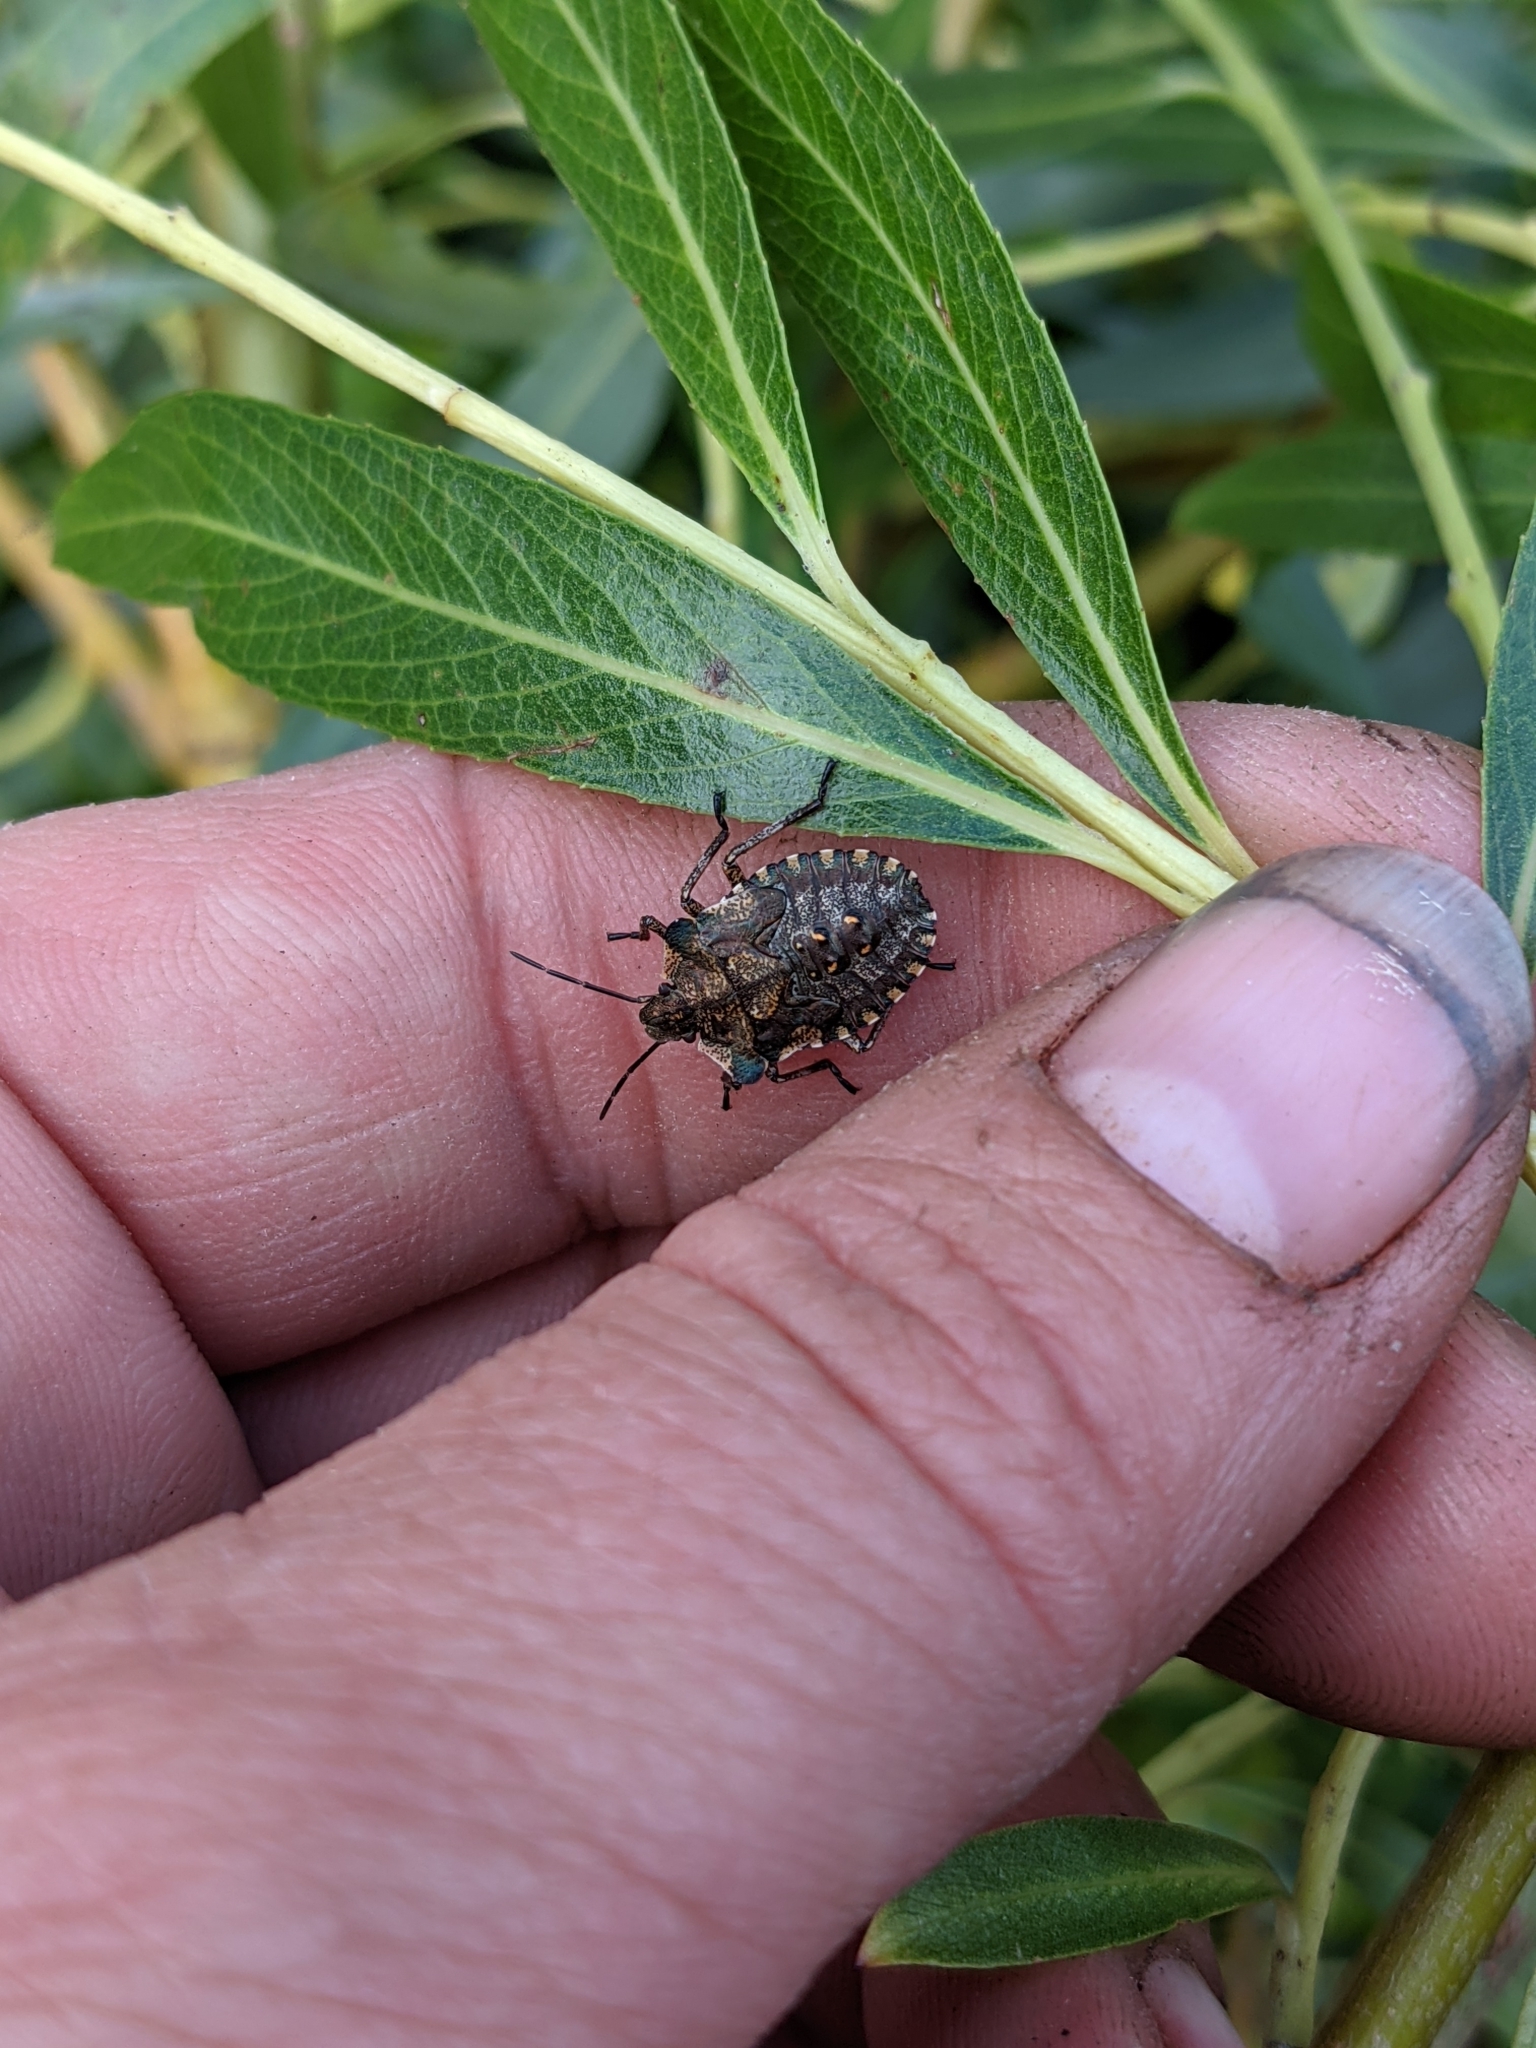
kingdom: Animalia
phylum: Arthropoda
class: Insecta
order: Hemiptera
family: Pentatomidae
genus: Pentatoma
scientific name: Pentatoma rufipes
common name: Forest bug
